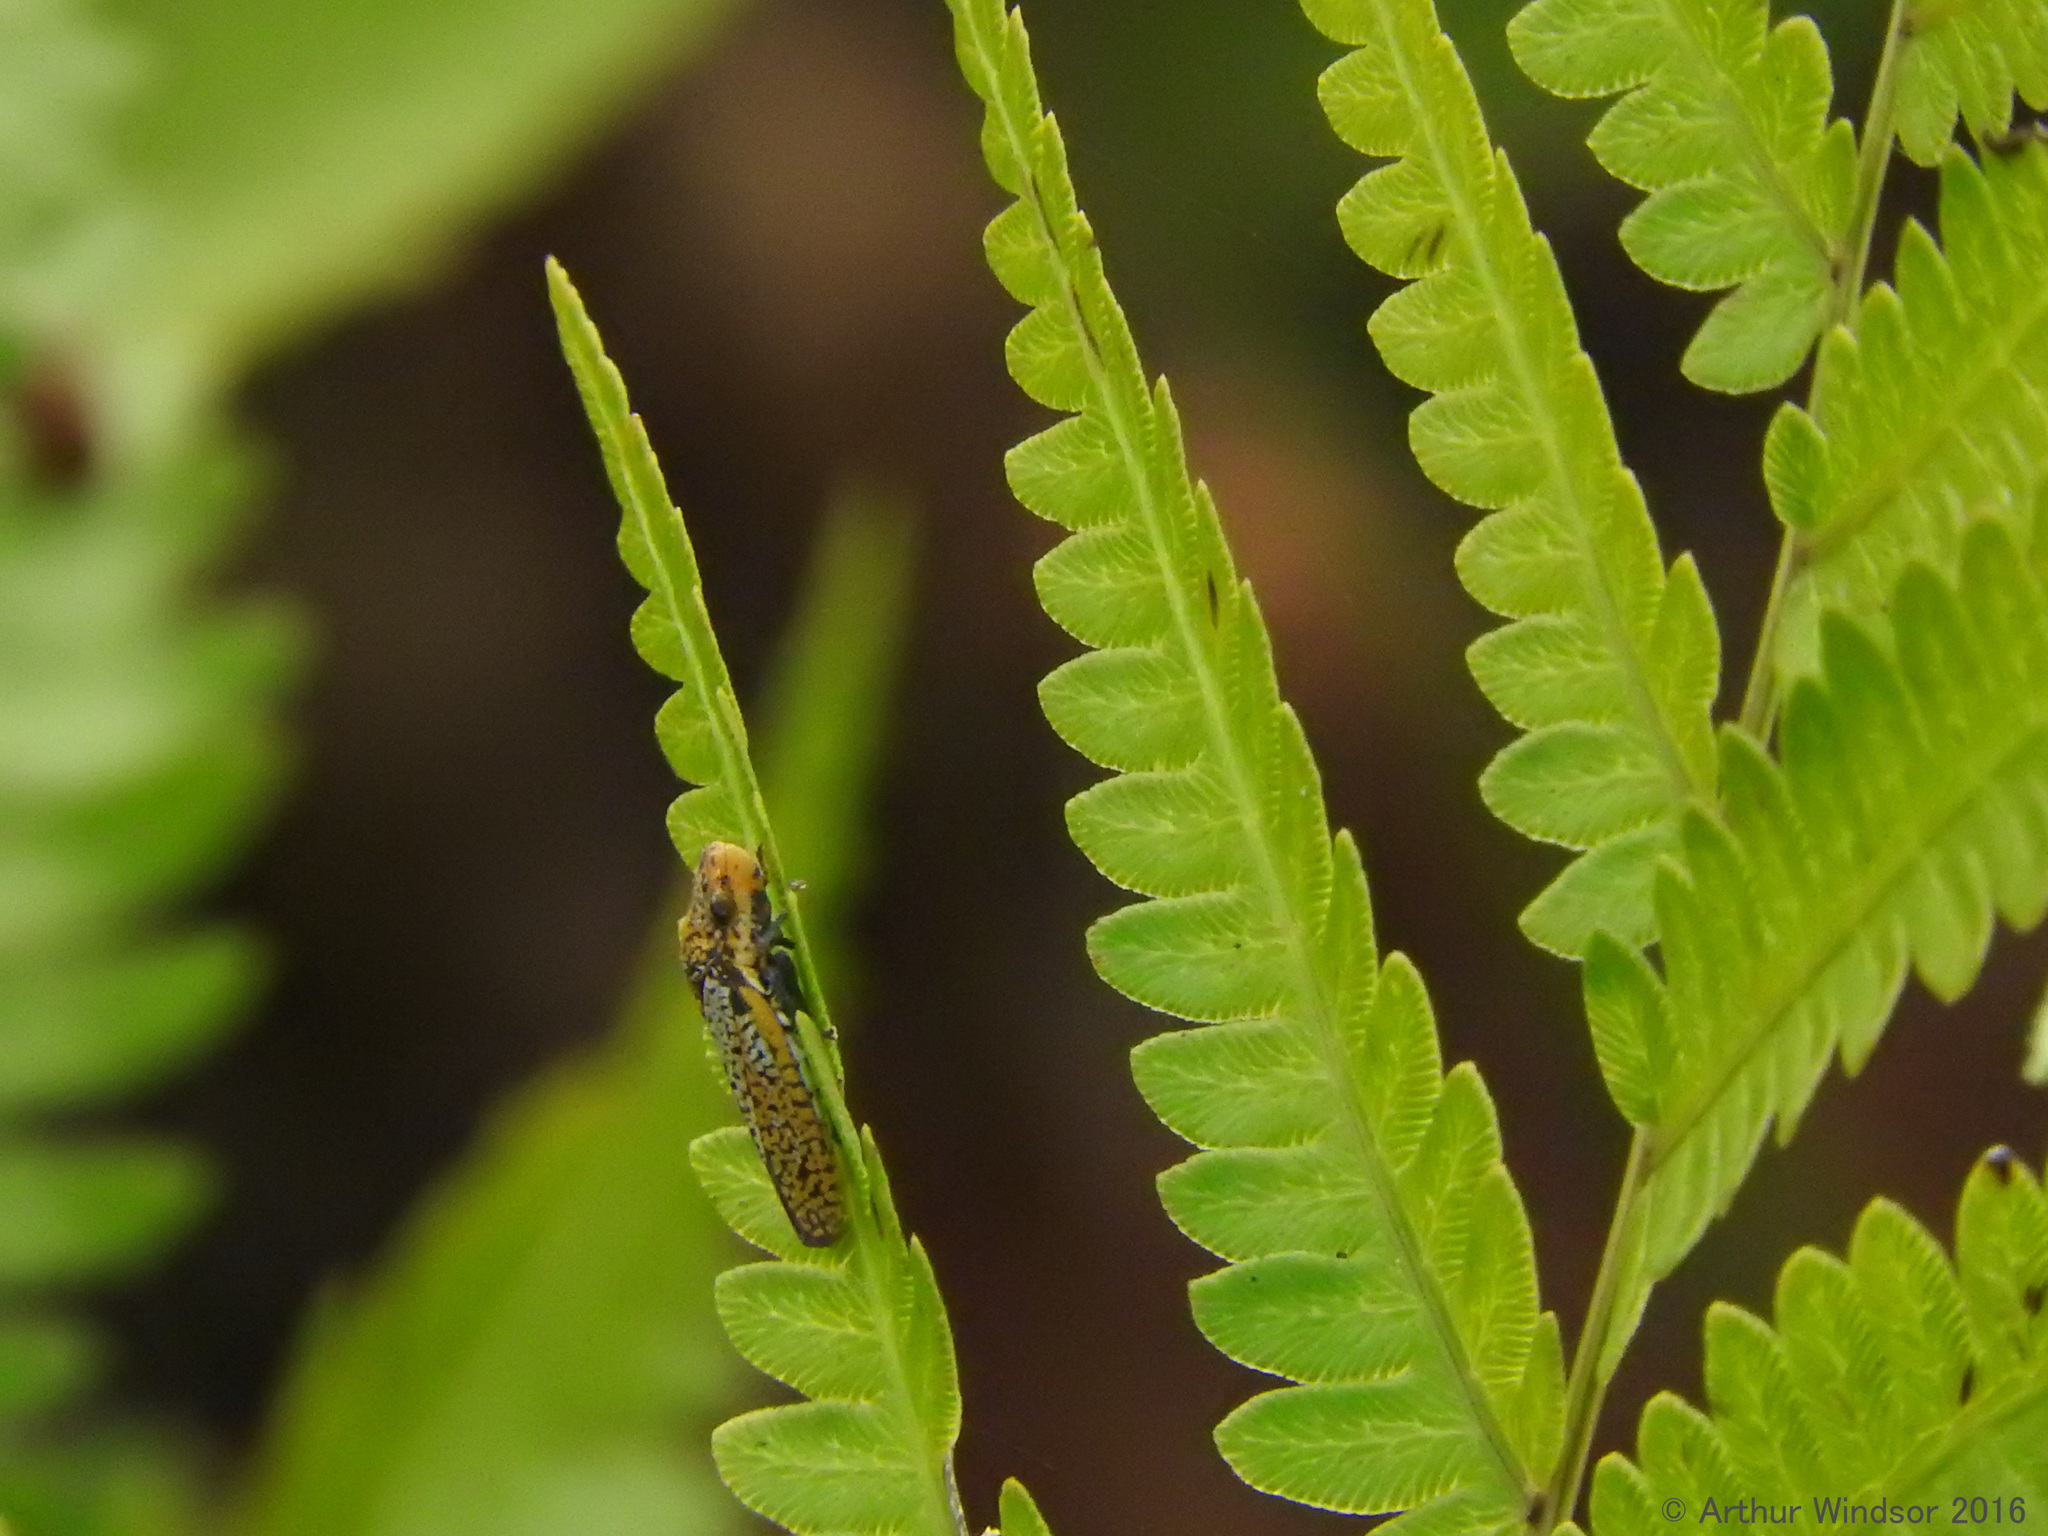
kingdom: Animalia
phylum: Arthropoda
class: Insecta
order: Hemiptera
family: Cicadellidae
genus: Paraulacizes
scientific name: Paraulacizes irrorata
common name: Speckled sharpshooter
